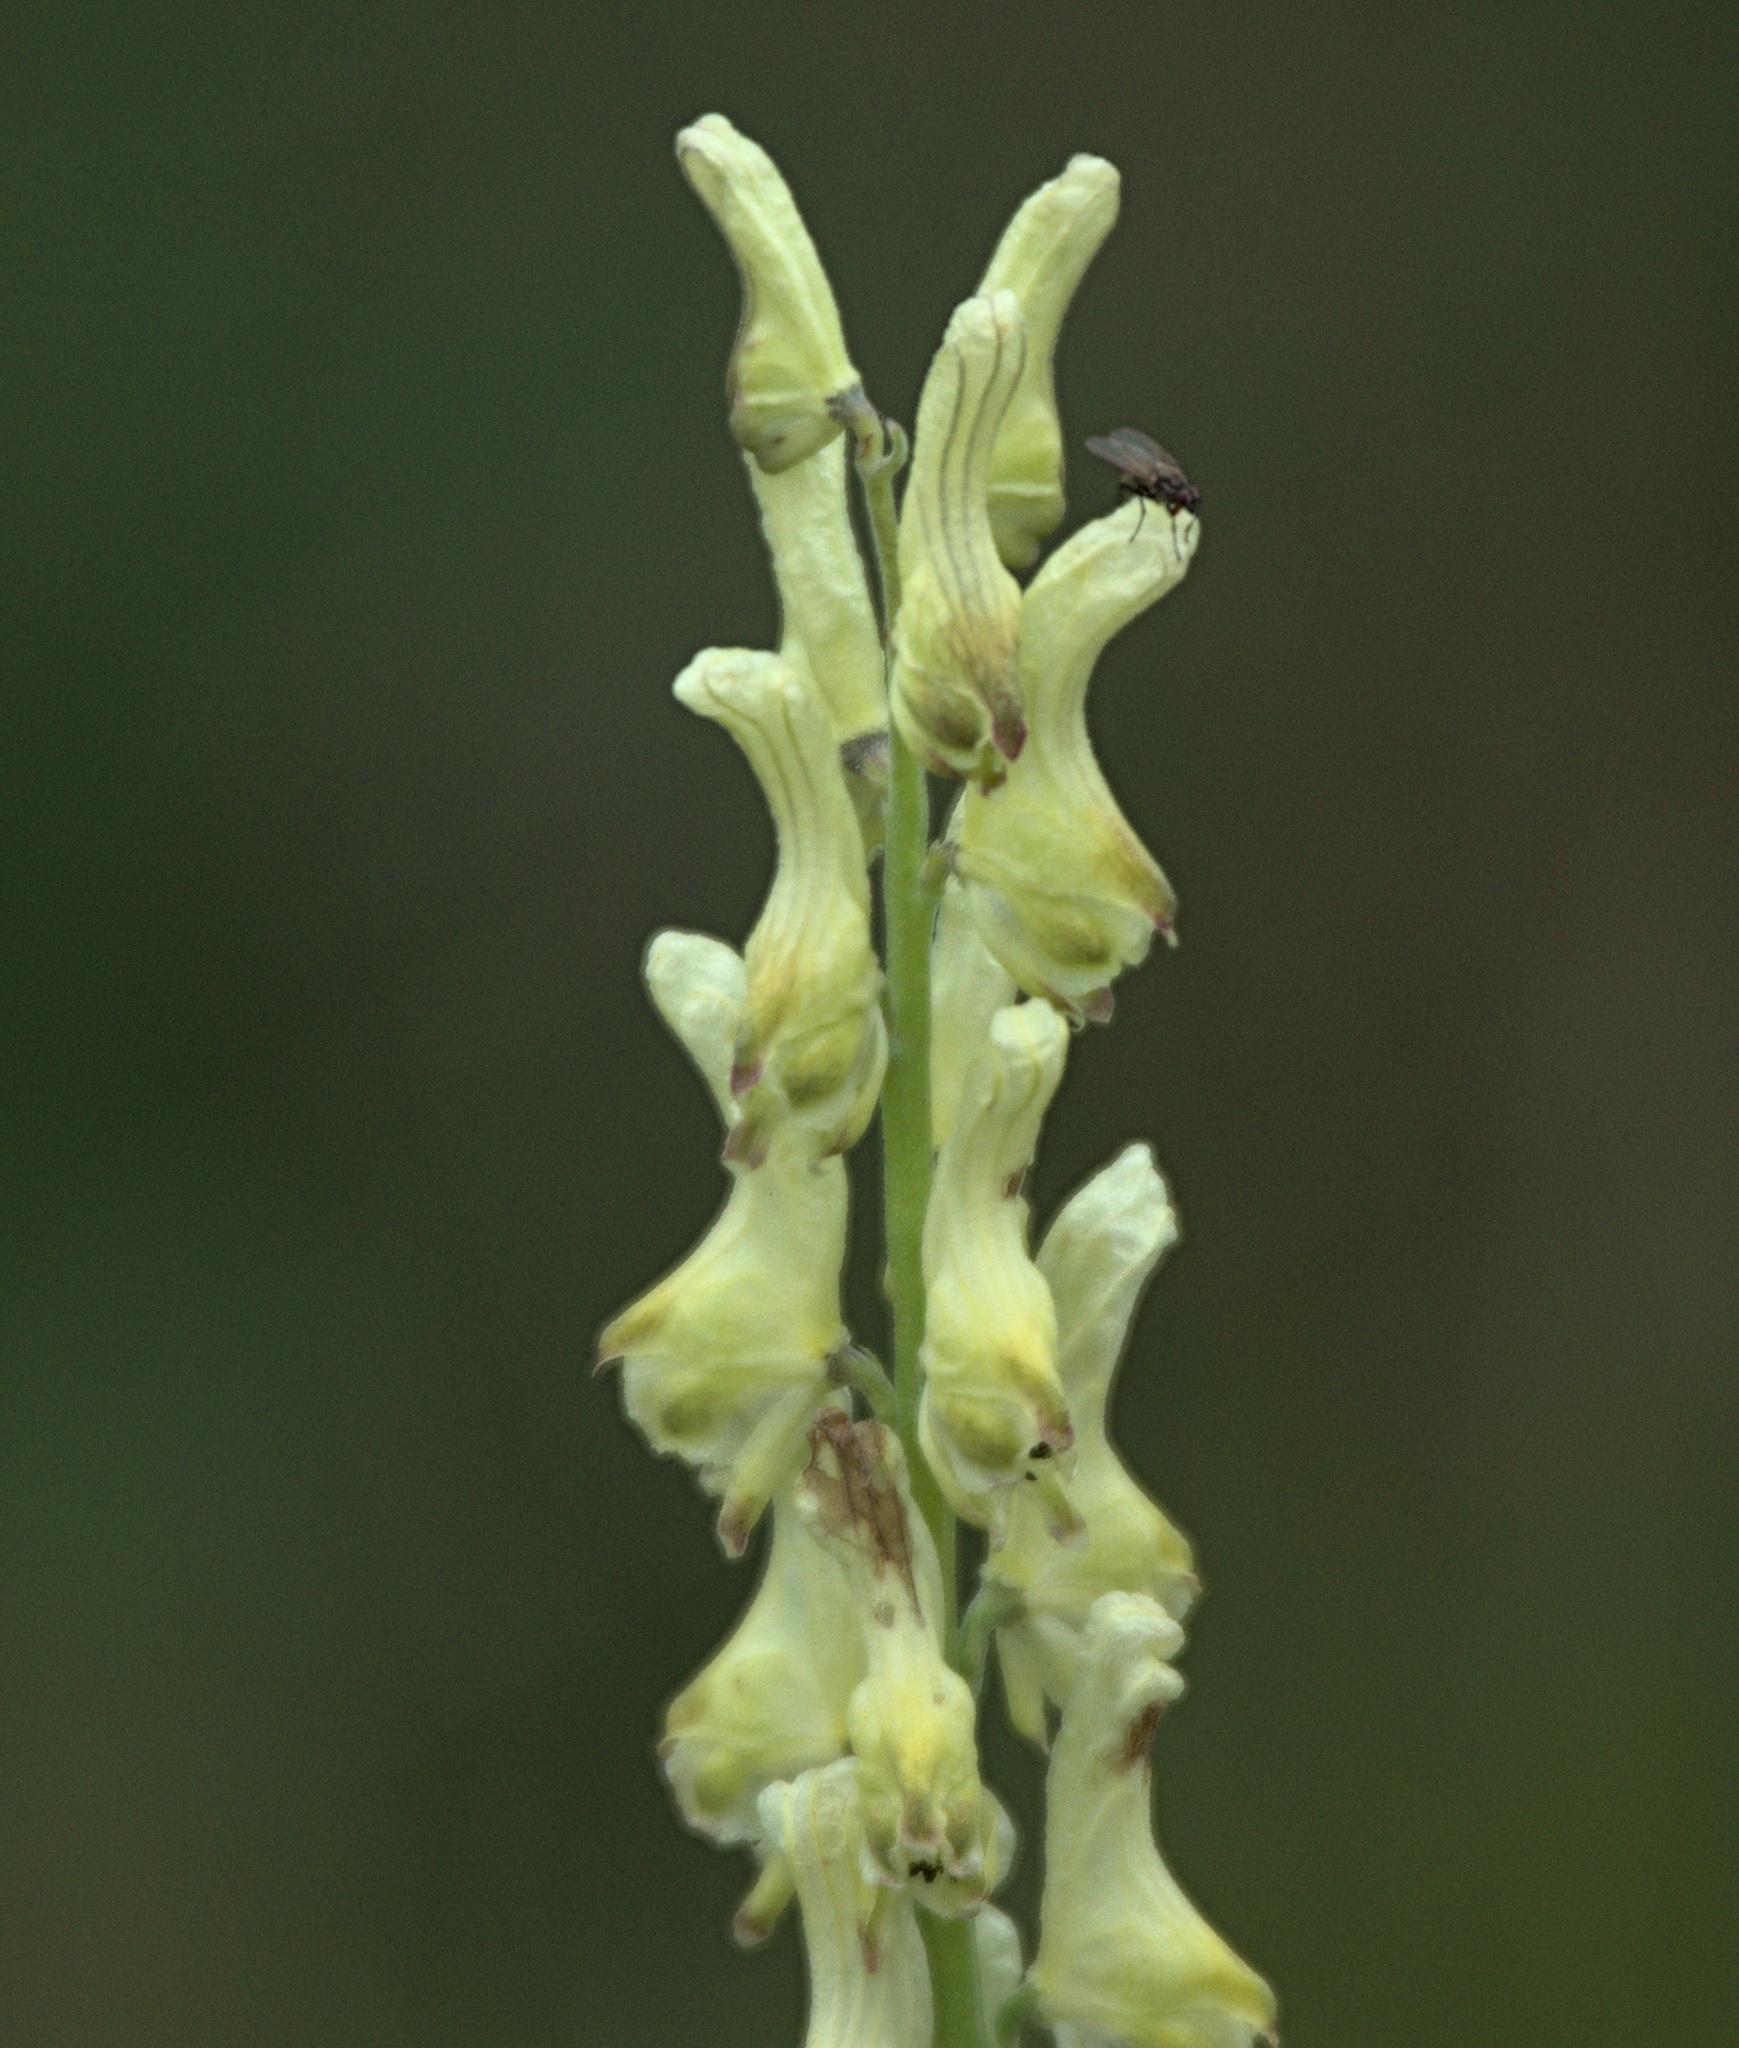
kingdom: Plantae
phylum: Tracheophyta
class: Magnoliopsida
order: Ranunculales
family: Ranunculaceae
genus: Aconitum
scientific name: Aconitum barbatum
